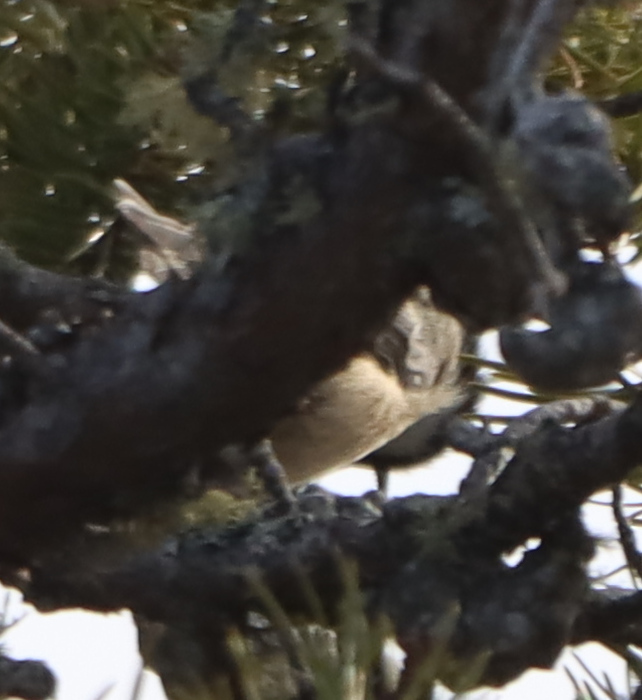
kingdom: Animalia
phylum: Chordata
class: Aves
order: Passeriformes
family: Paridae
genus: Poecile
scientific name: Poecile atricapillus
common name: Black-capped chickadee
